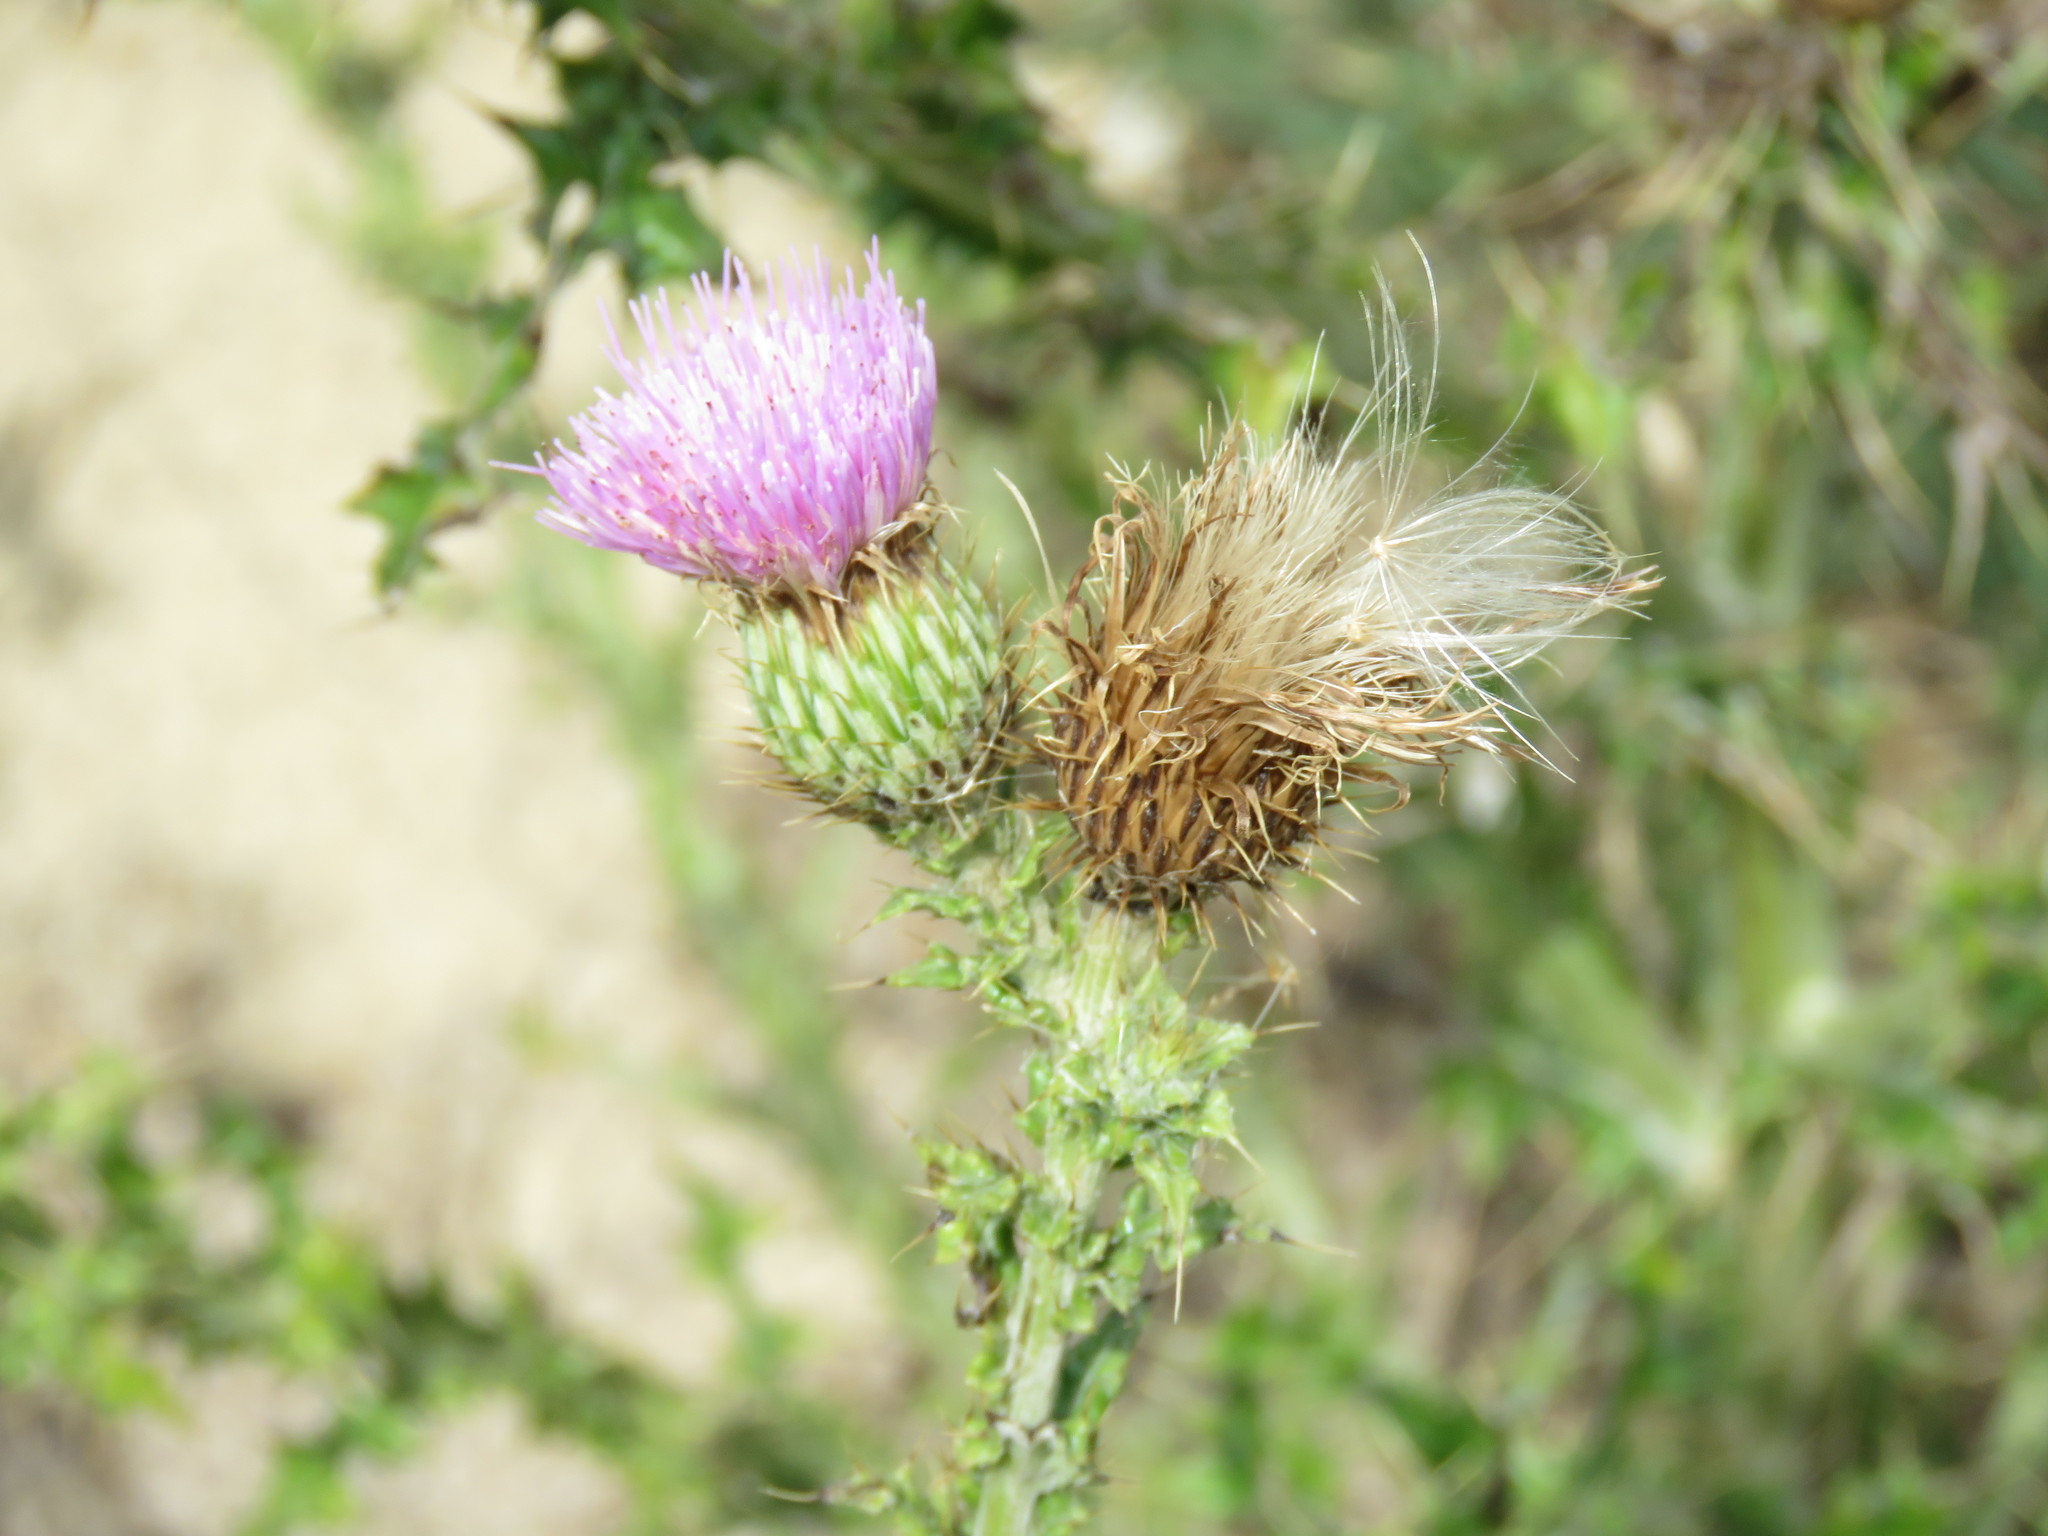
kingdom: Plantae
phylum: Tracheophyta
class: Magnoliopsida
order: Asterales
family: Asteraceae
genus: Cirsium
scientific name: Cirsium texanum
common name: Texas purple thistle
